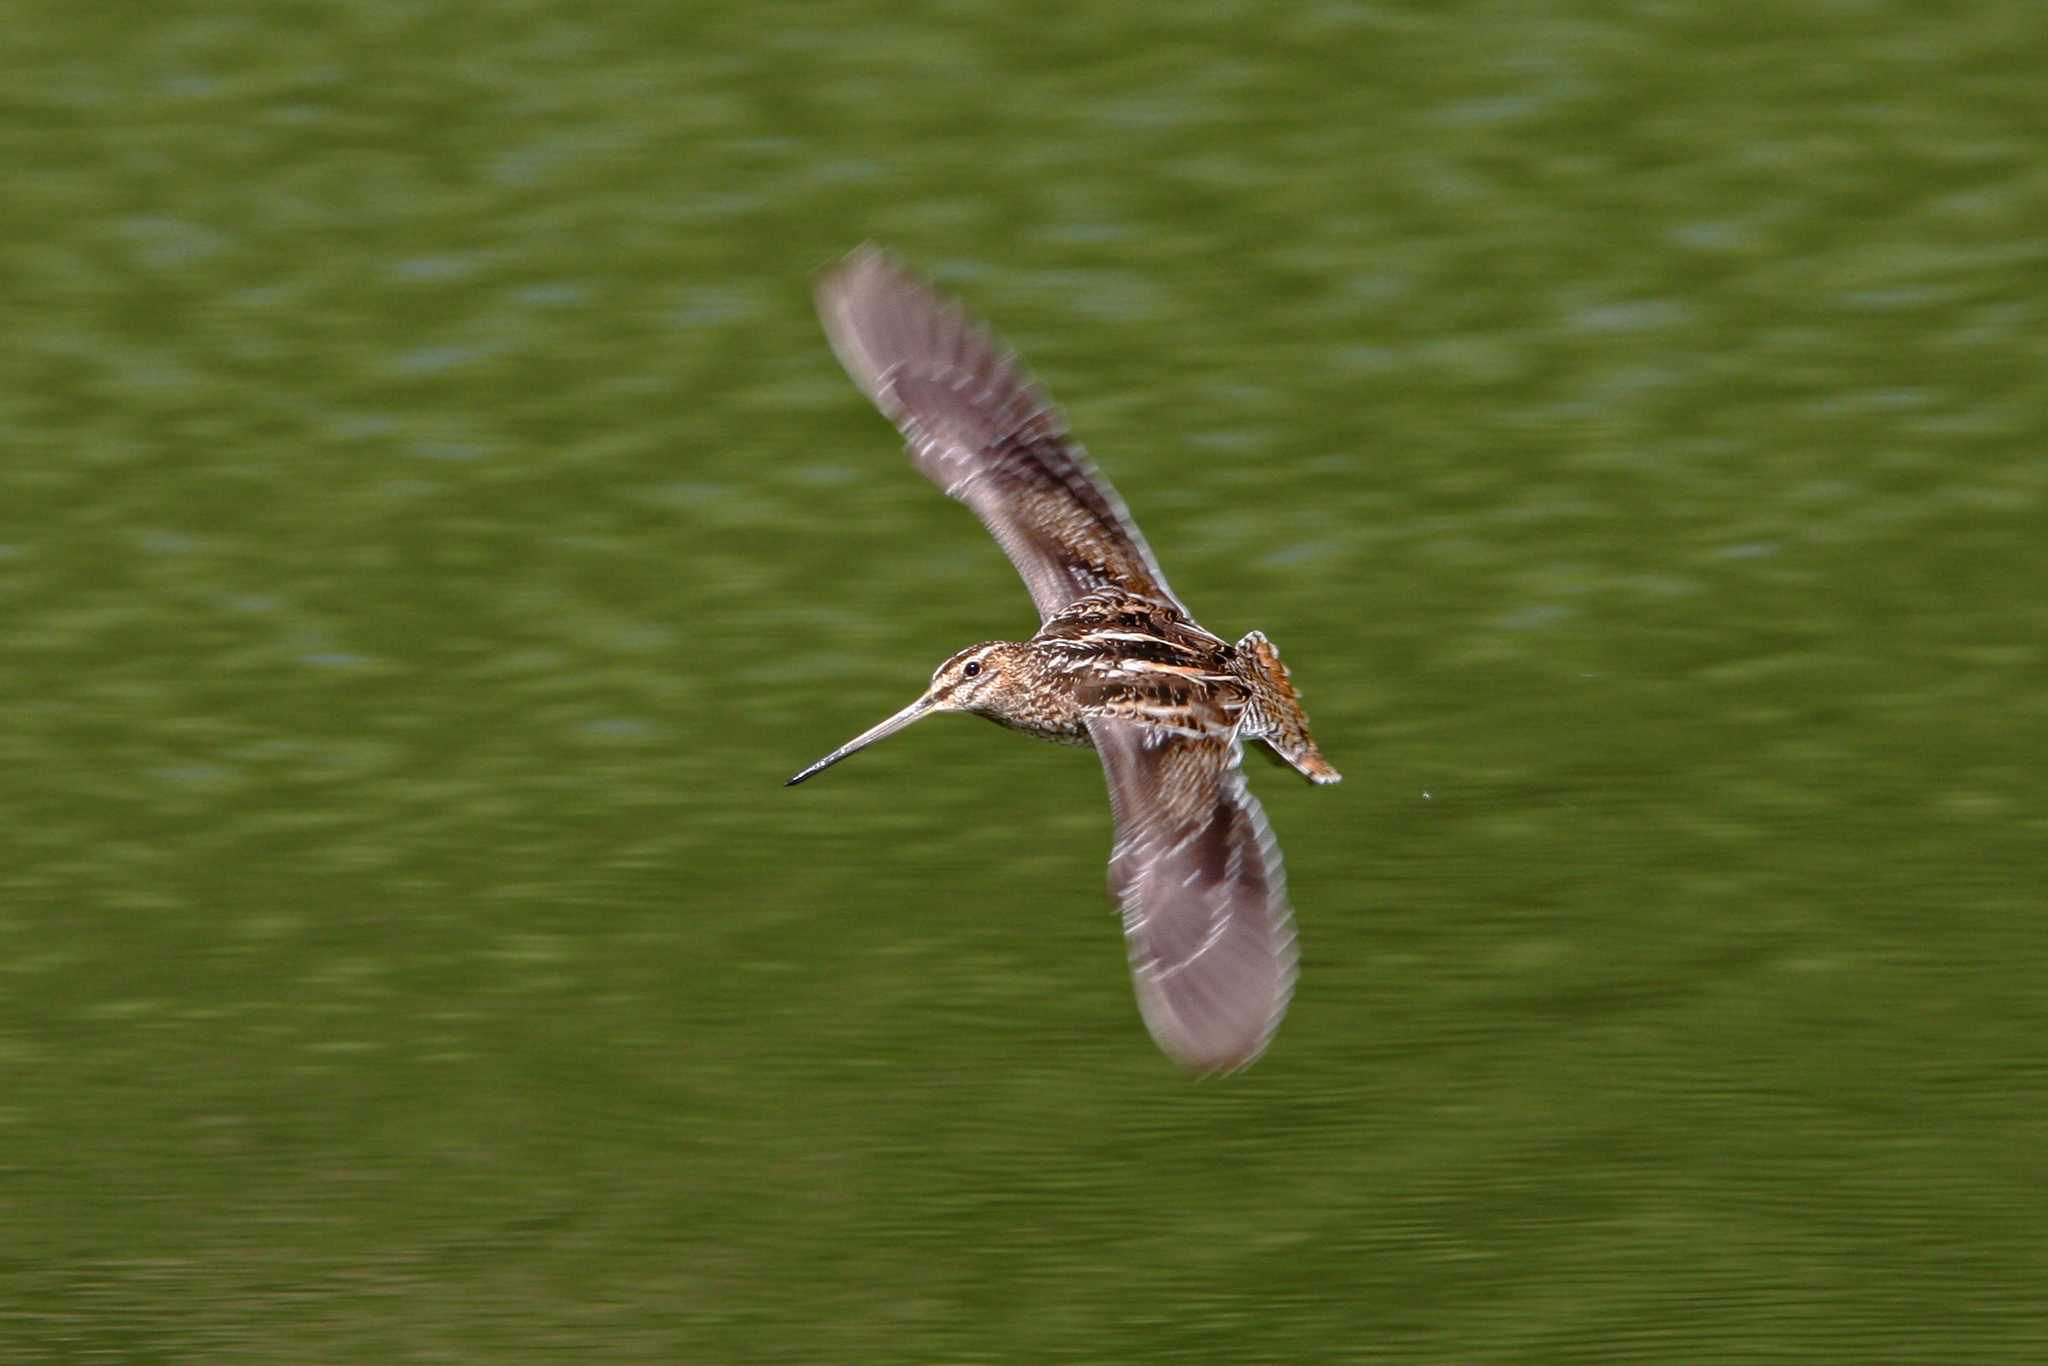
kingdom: Animalia
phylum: Chordata
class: Aves
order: Charadriiformes
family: Scolopacidae
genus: Gallinago
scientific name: Gallinago gallinago
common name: Common snipe
